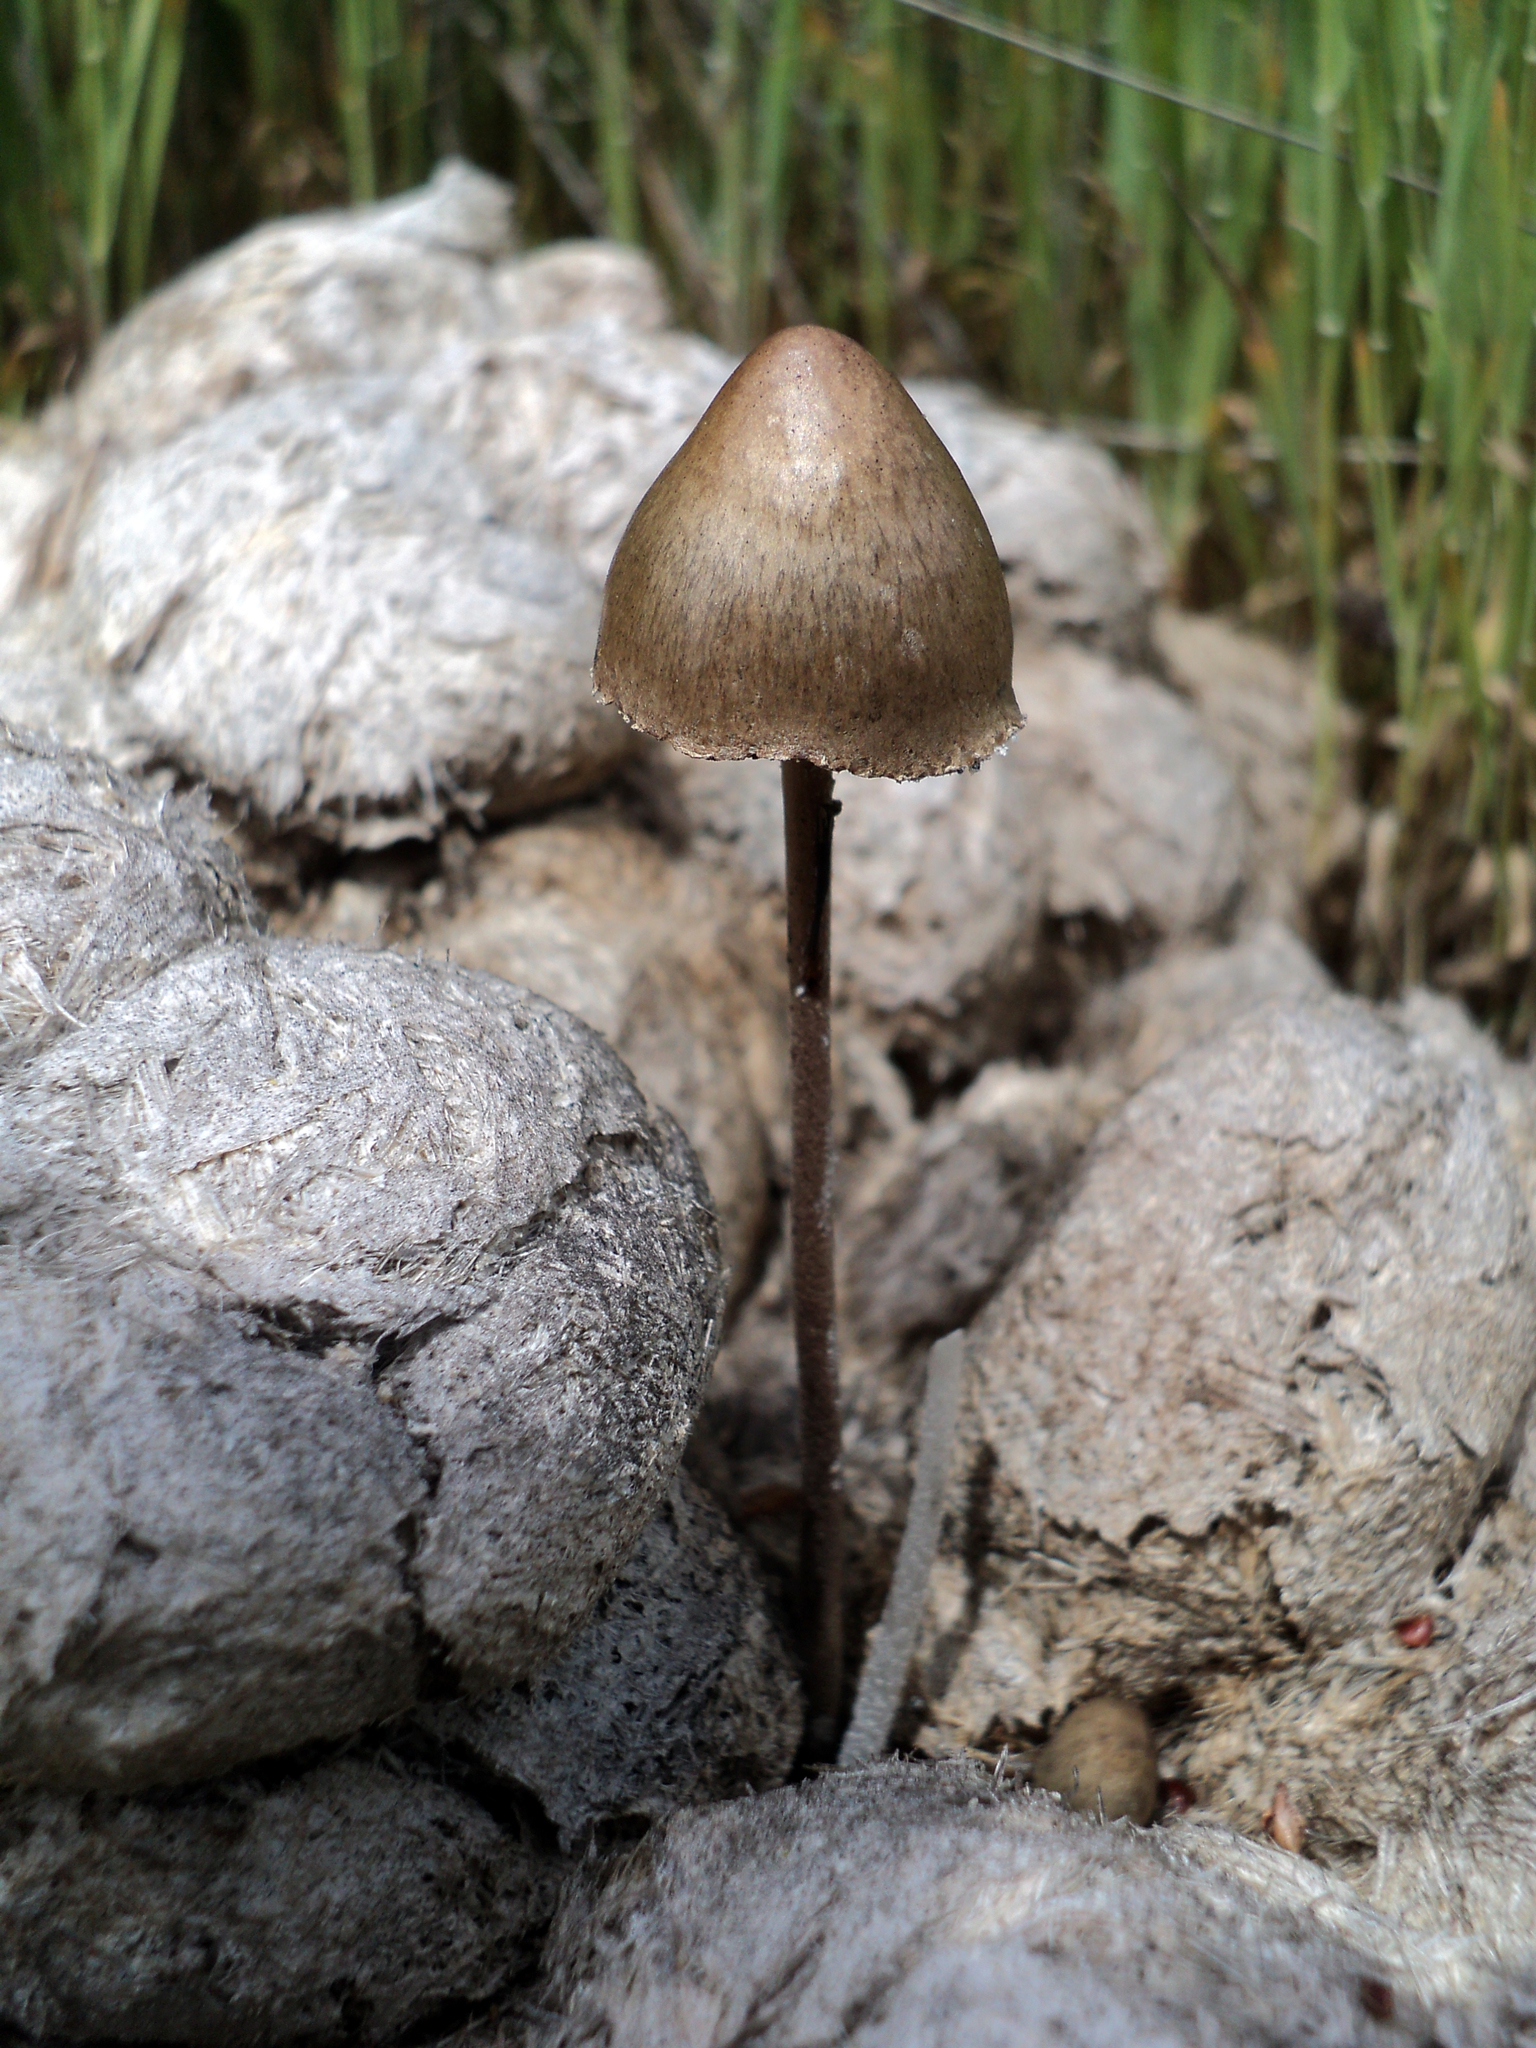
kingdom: Fungi
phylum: Basidiomycota
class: Agaricomycetes
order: Agaricales
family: Bolbitiaceae
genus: Panaeolus
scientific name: Panaeolus papilionaceus
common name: Petticoat mottlegill
